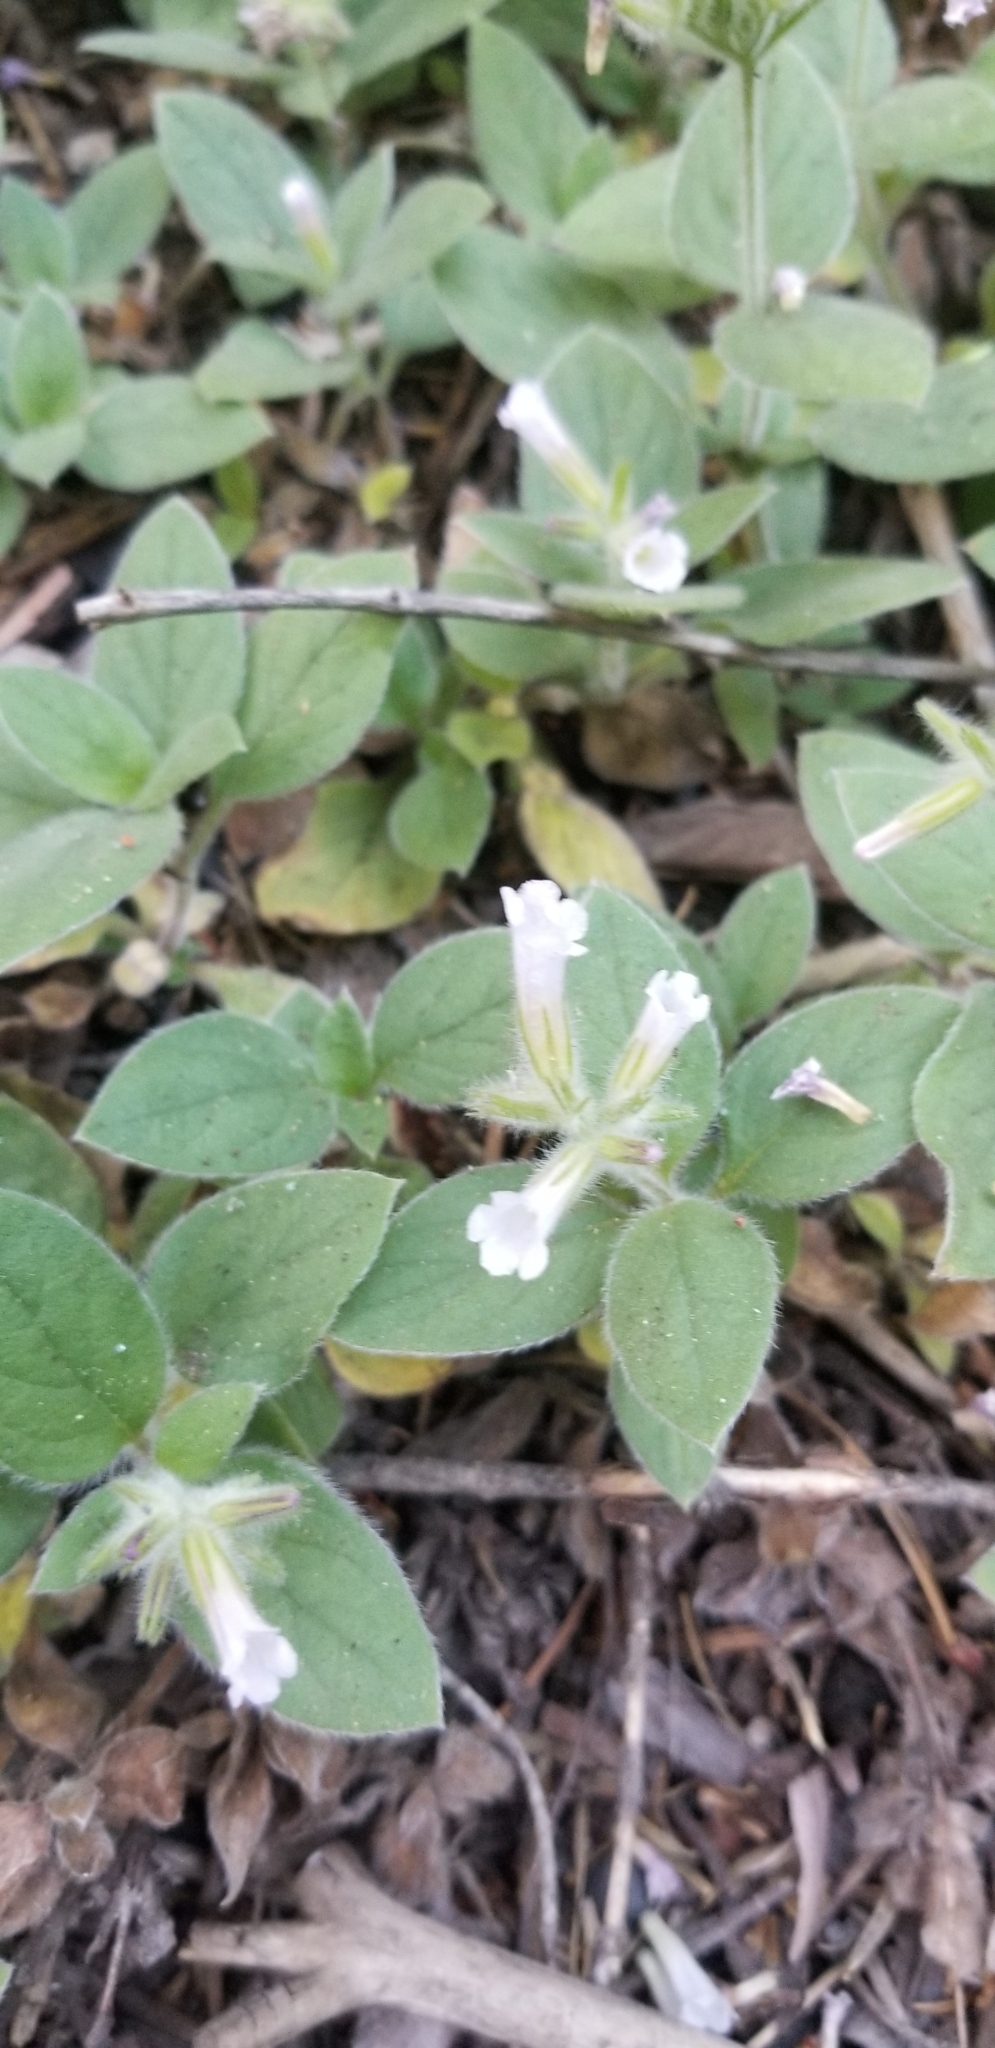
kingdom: Plantae
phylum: Tracheophyta
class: Magnoliopsida
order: Boraginales
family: Hydrophyllaceae
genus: Draperia
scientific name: Draperia systyla
